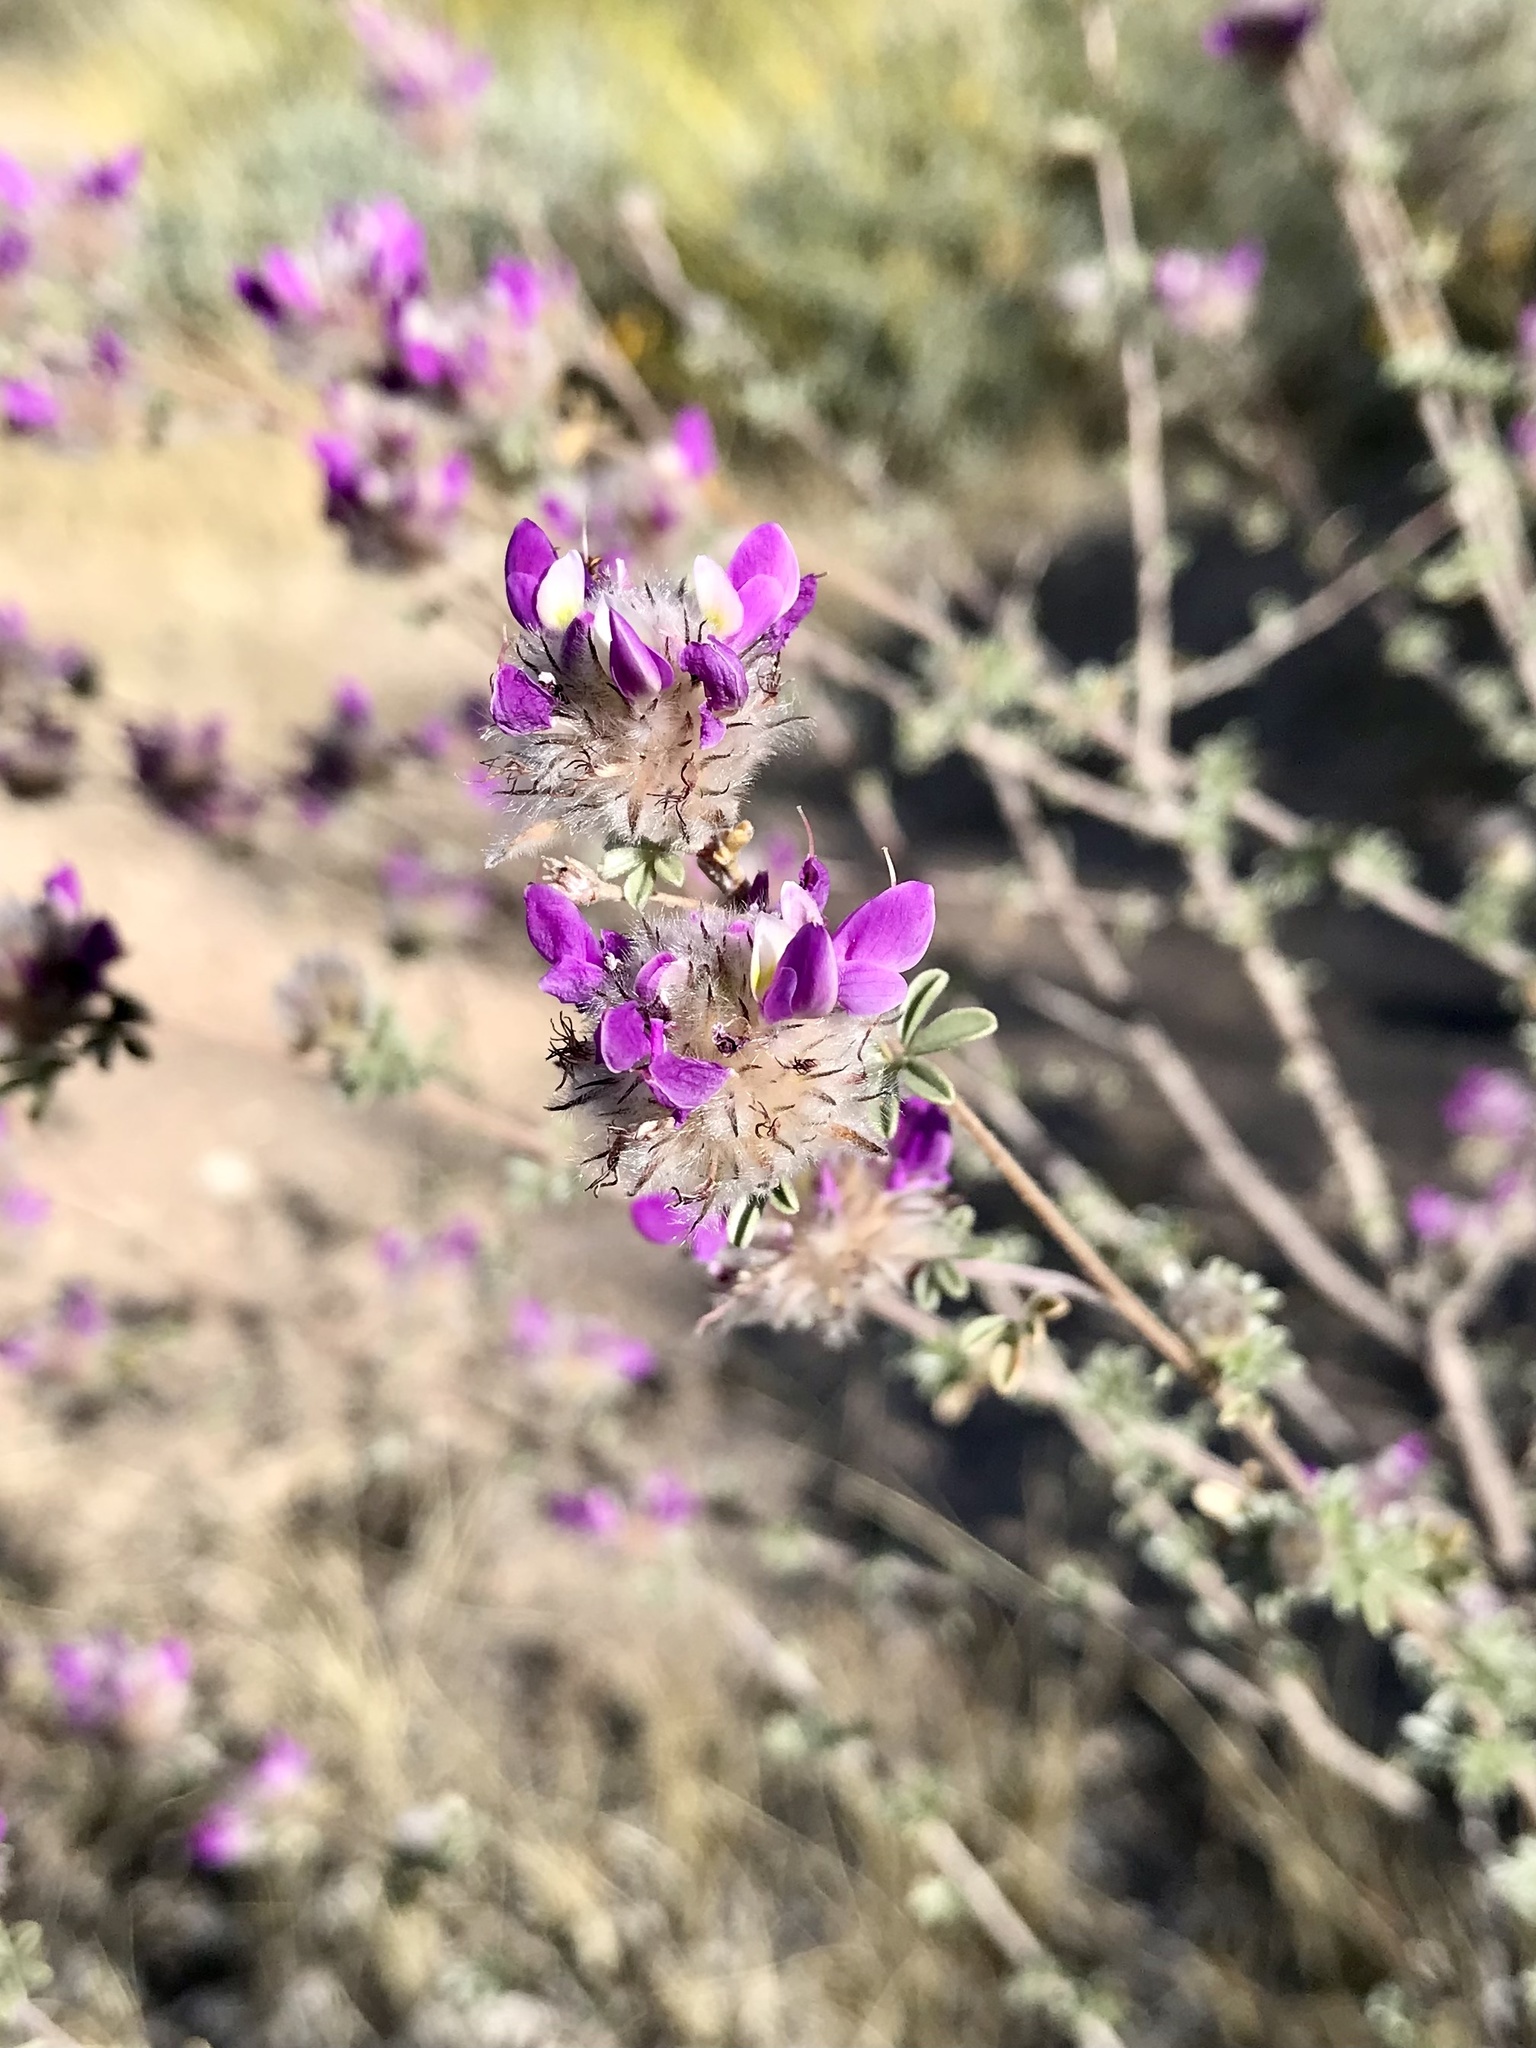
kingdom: Plantae
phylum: Tracheophyta
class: Magnoliopsida
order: Fabales
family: Fabaceae
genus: Dalea
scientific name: Dalea pulchra
